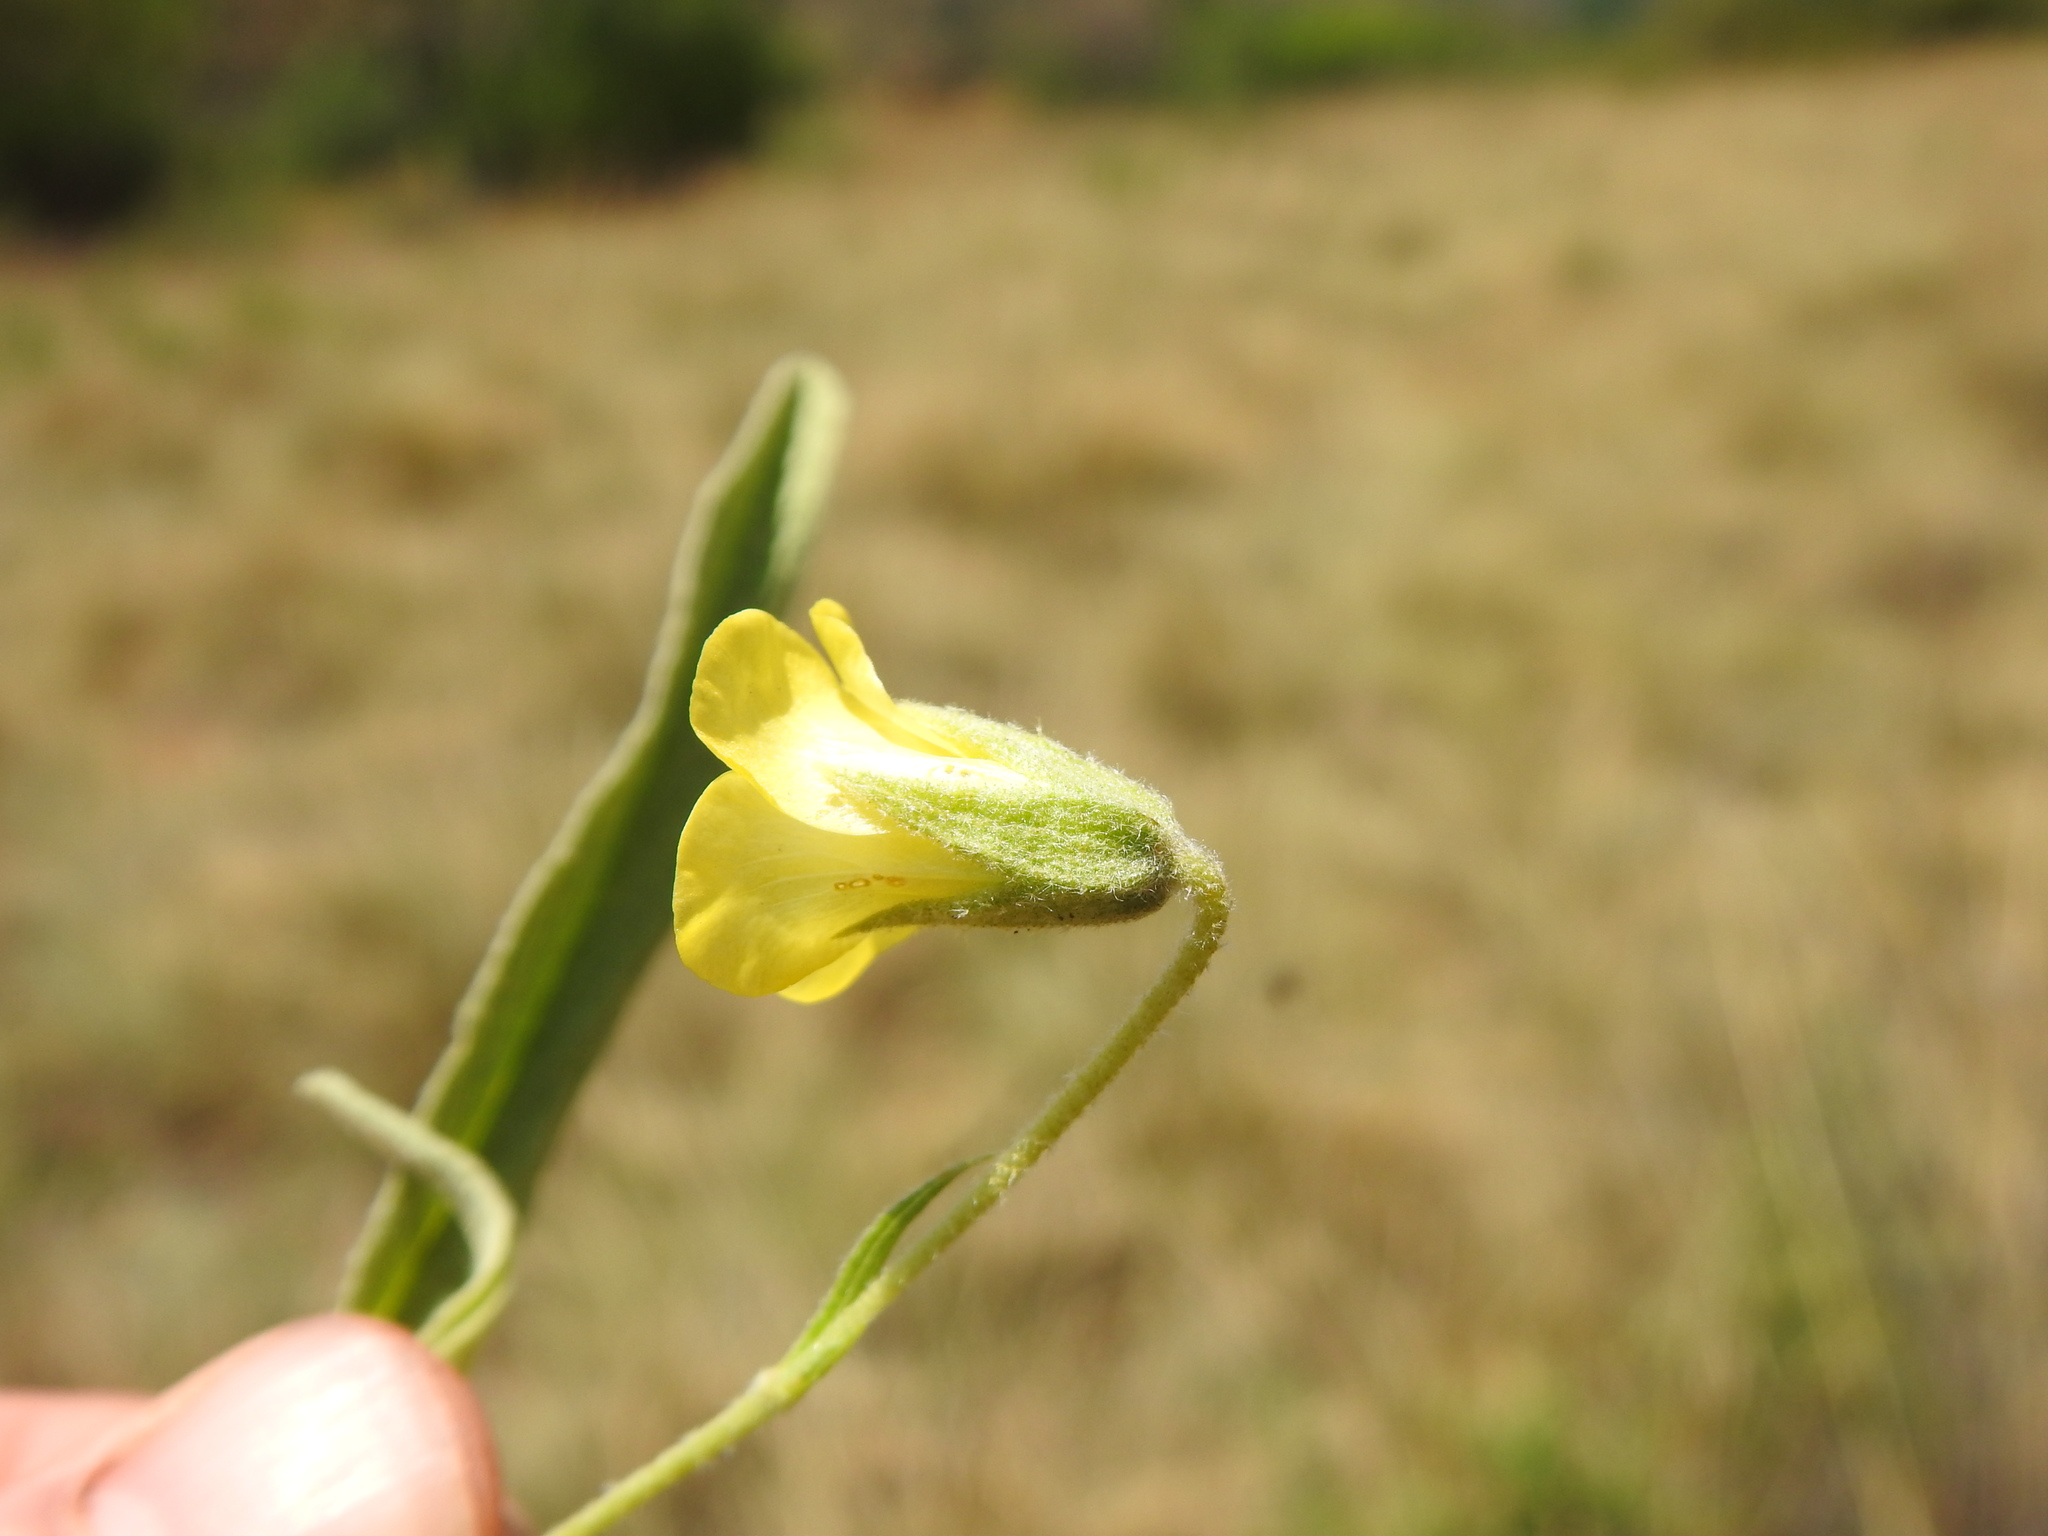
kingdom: Plantae
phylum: Tracheophyta
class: Magnoliopsida
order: Malvales
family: Malvaceae
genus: Hermannia
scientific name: Hermannia lancifolia
